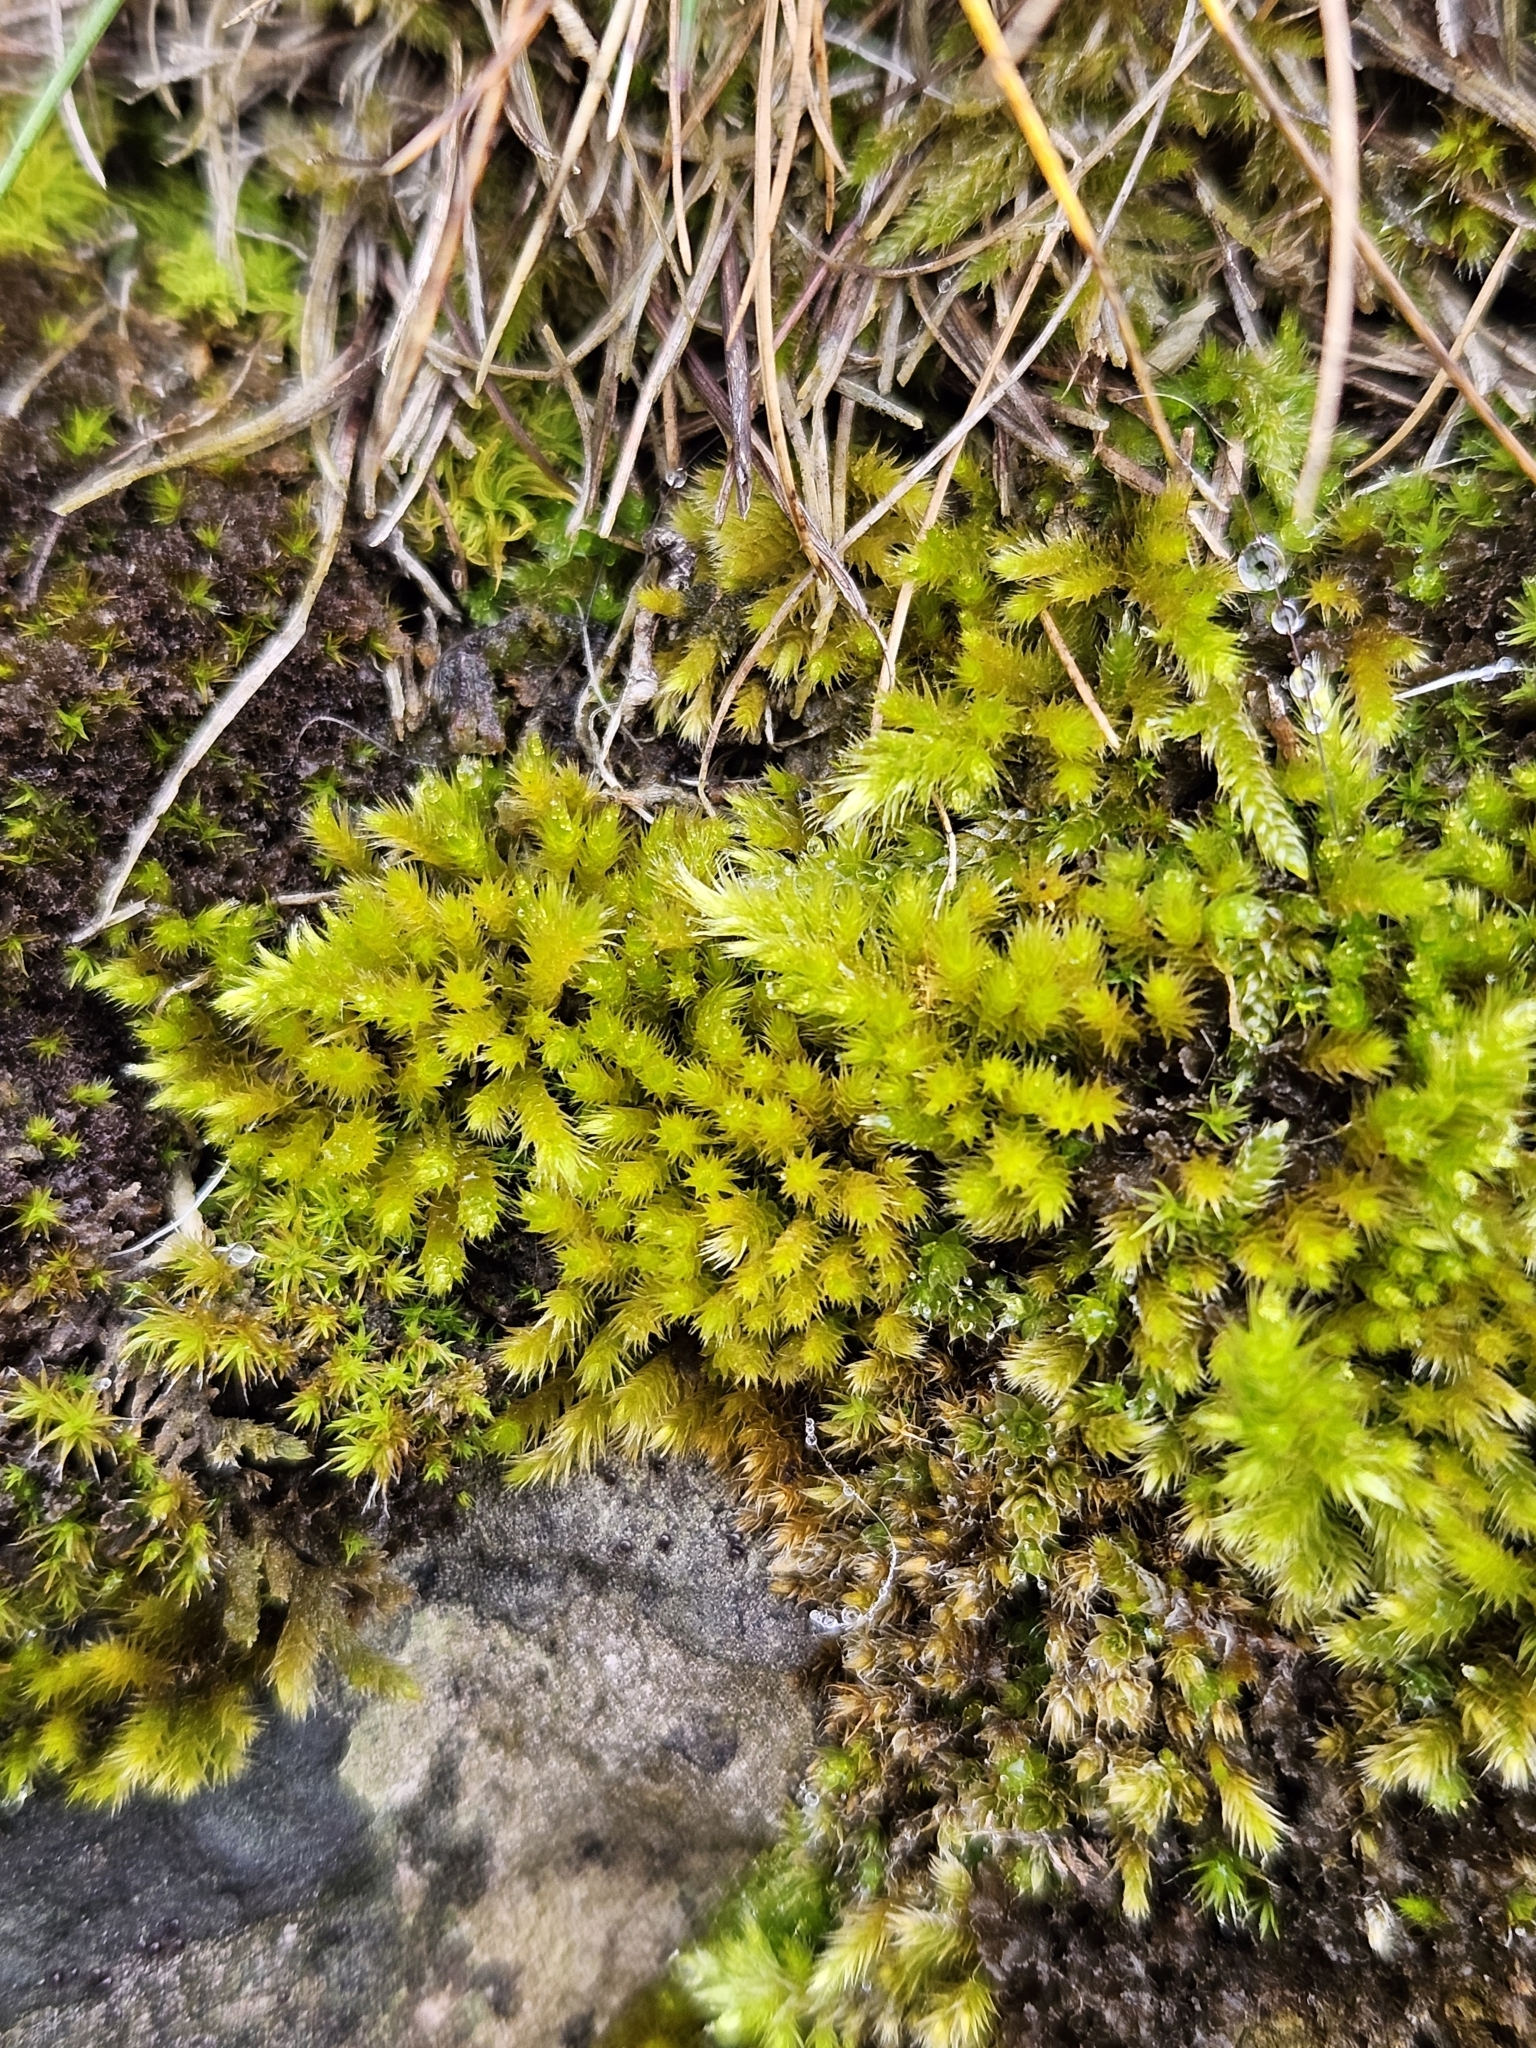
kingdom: Plantae
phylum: Bryophyta
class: Bryopsida
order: Hypnales
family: Brachytheciaceae
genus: Homalothecium
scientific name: Homalothecium sericeum
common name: Silky wall feather-moss
